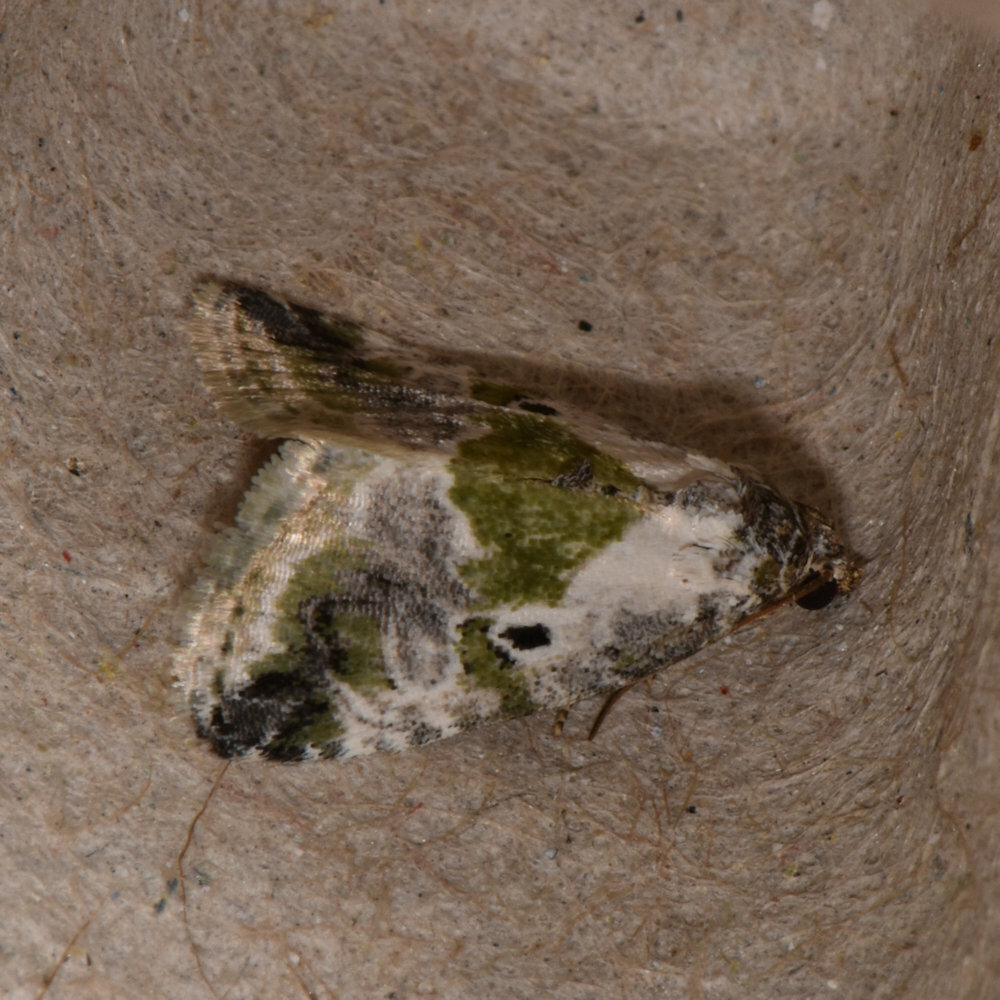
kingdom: Animalia
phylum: Arthropoda
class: Insecta
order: Lepidoptera
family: Noctuidae
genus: Maliattha
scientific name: Maliattha synochitis
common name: Black-dotted glyph
